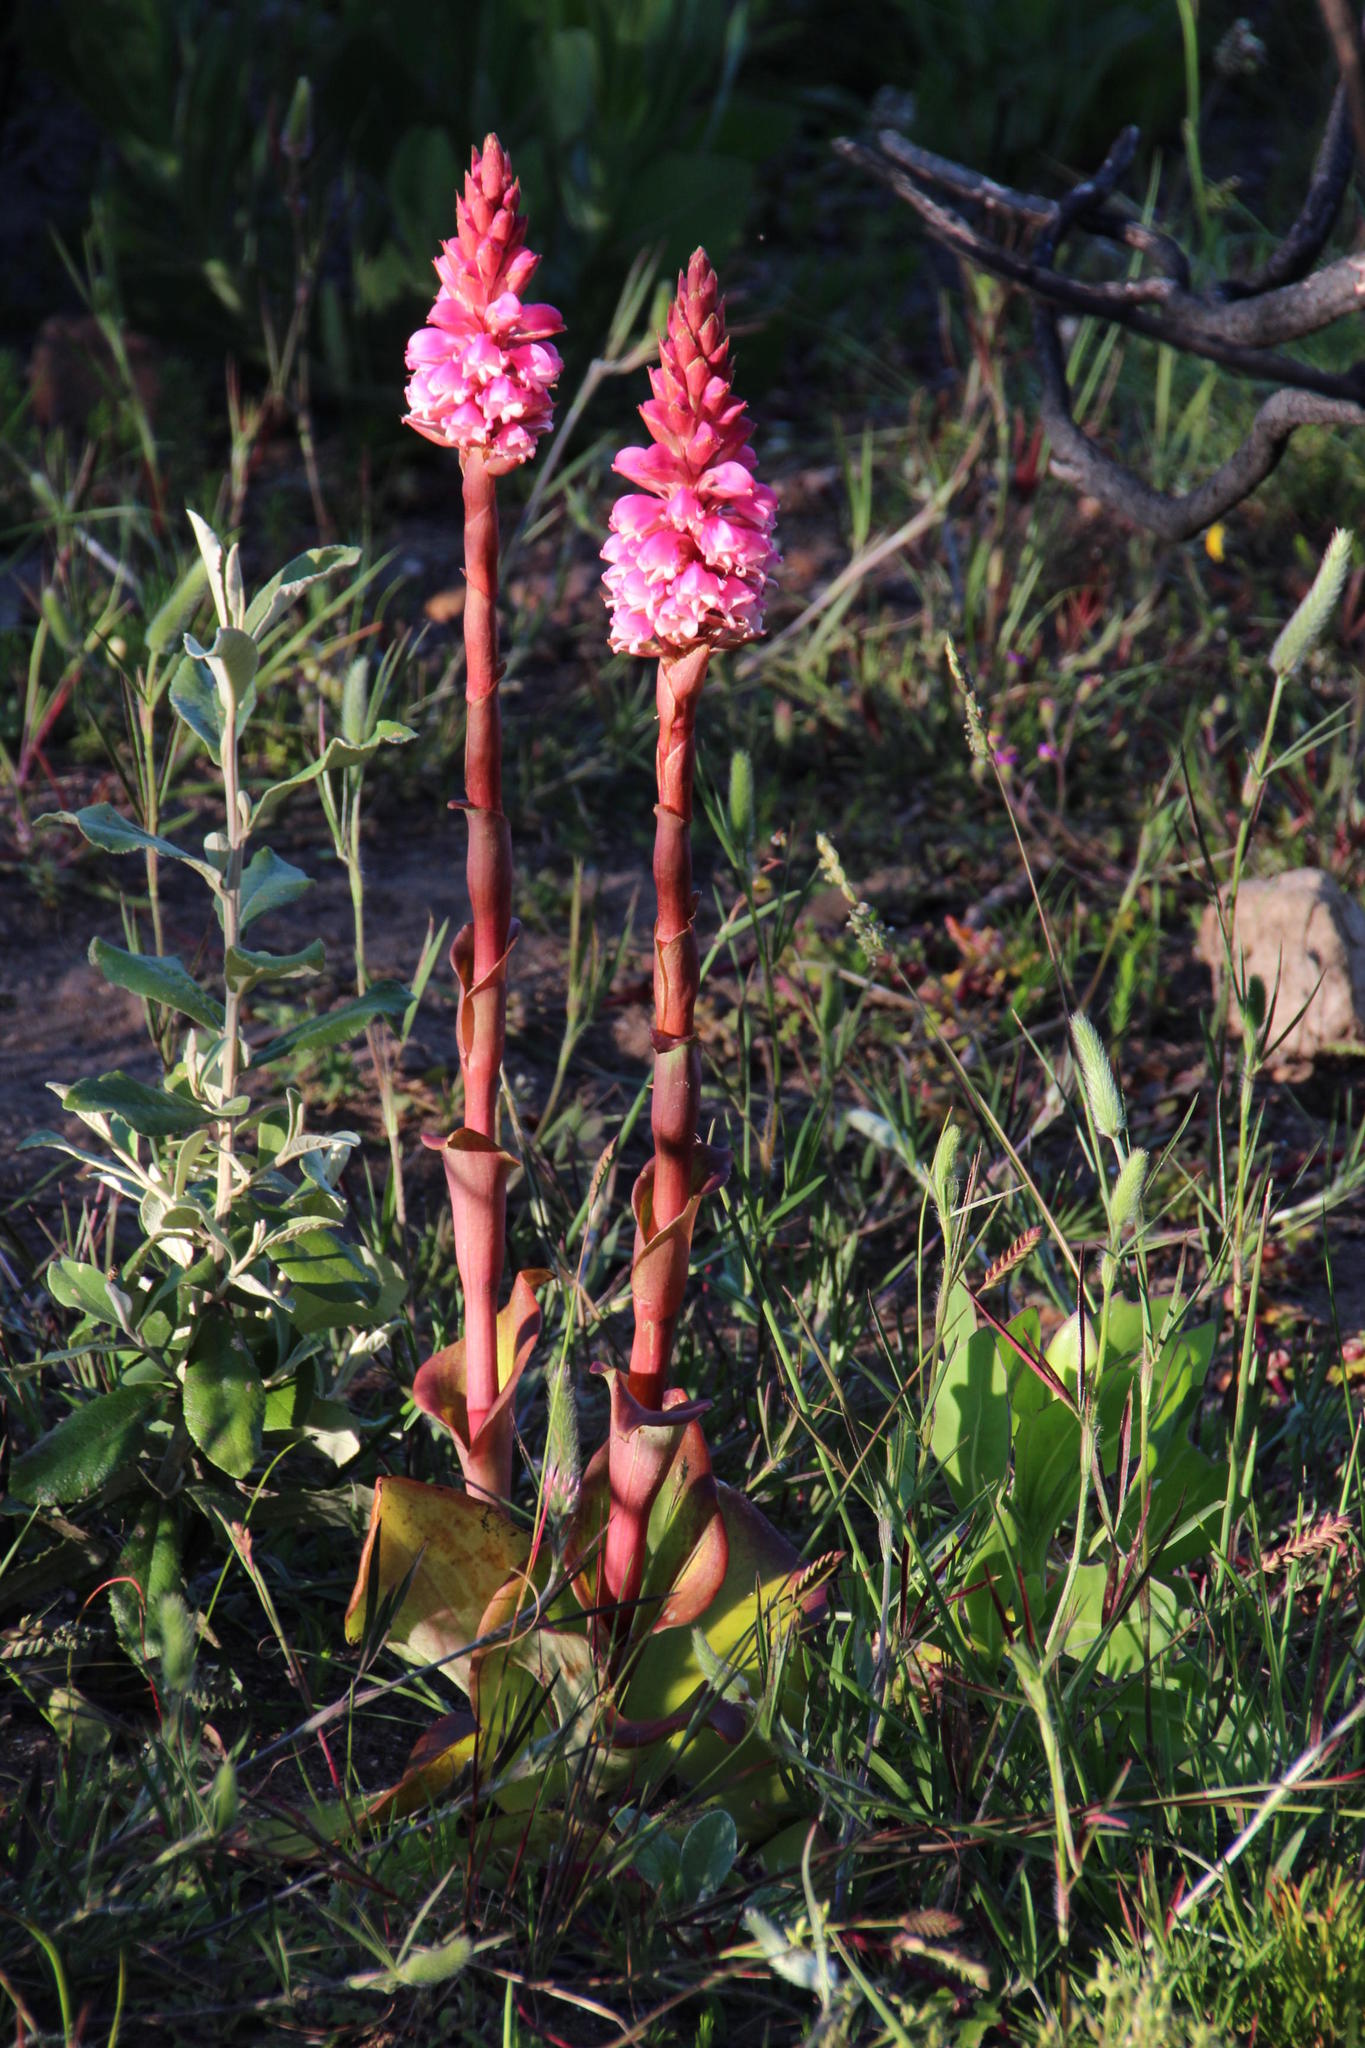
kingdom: Plantae
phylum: Tracheophyta
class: Liliopsida
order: Asparagales
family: Orchidaceae
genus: Satyrium
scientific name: Satyrium carneum
